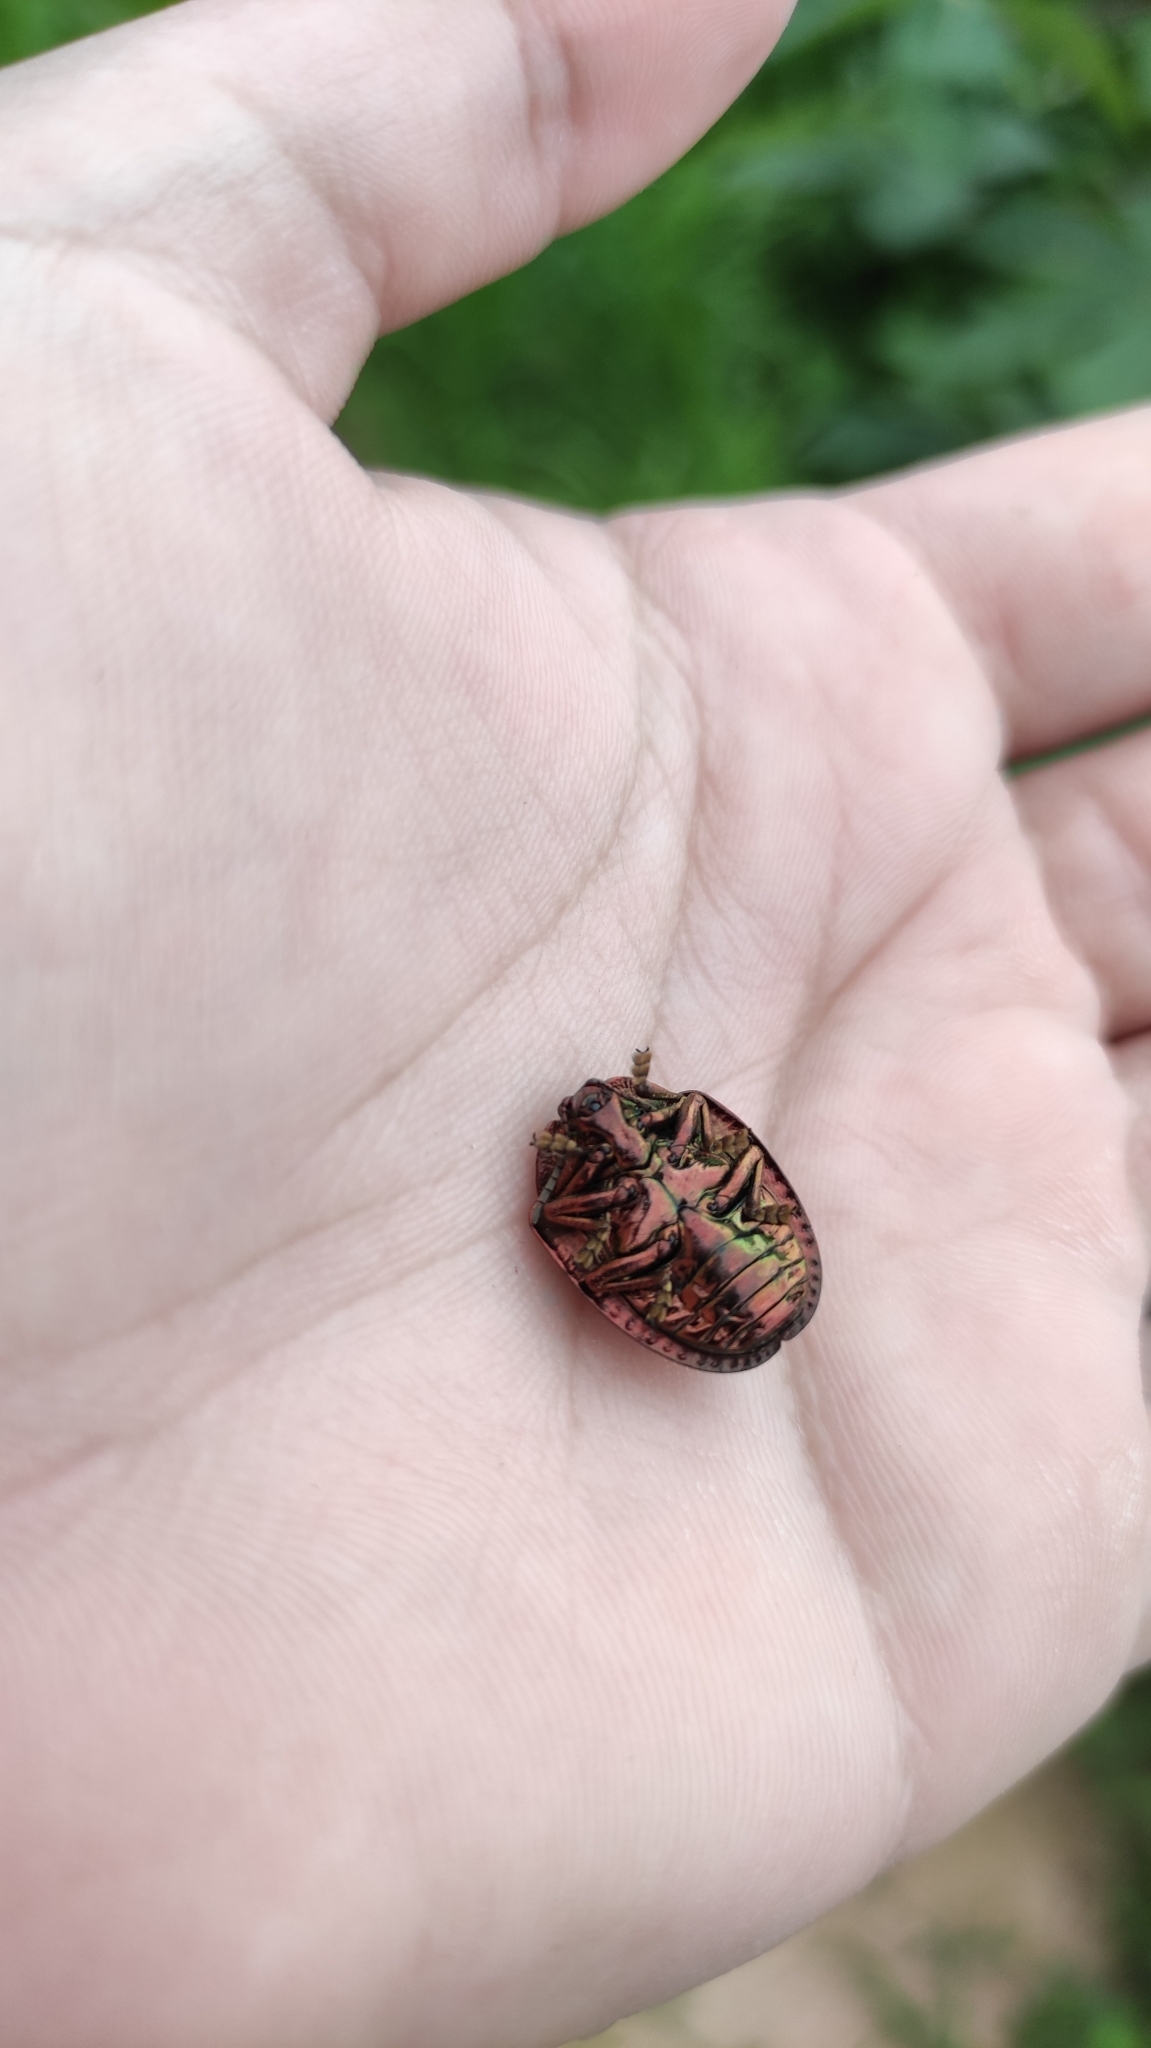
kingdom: Animalia
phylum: Arthropoda
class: Insecta
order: Coleoptera
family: Chrysomelidae
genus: Polychalca
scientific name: Polychalca punctatissima
